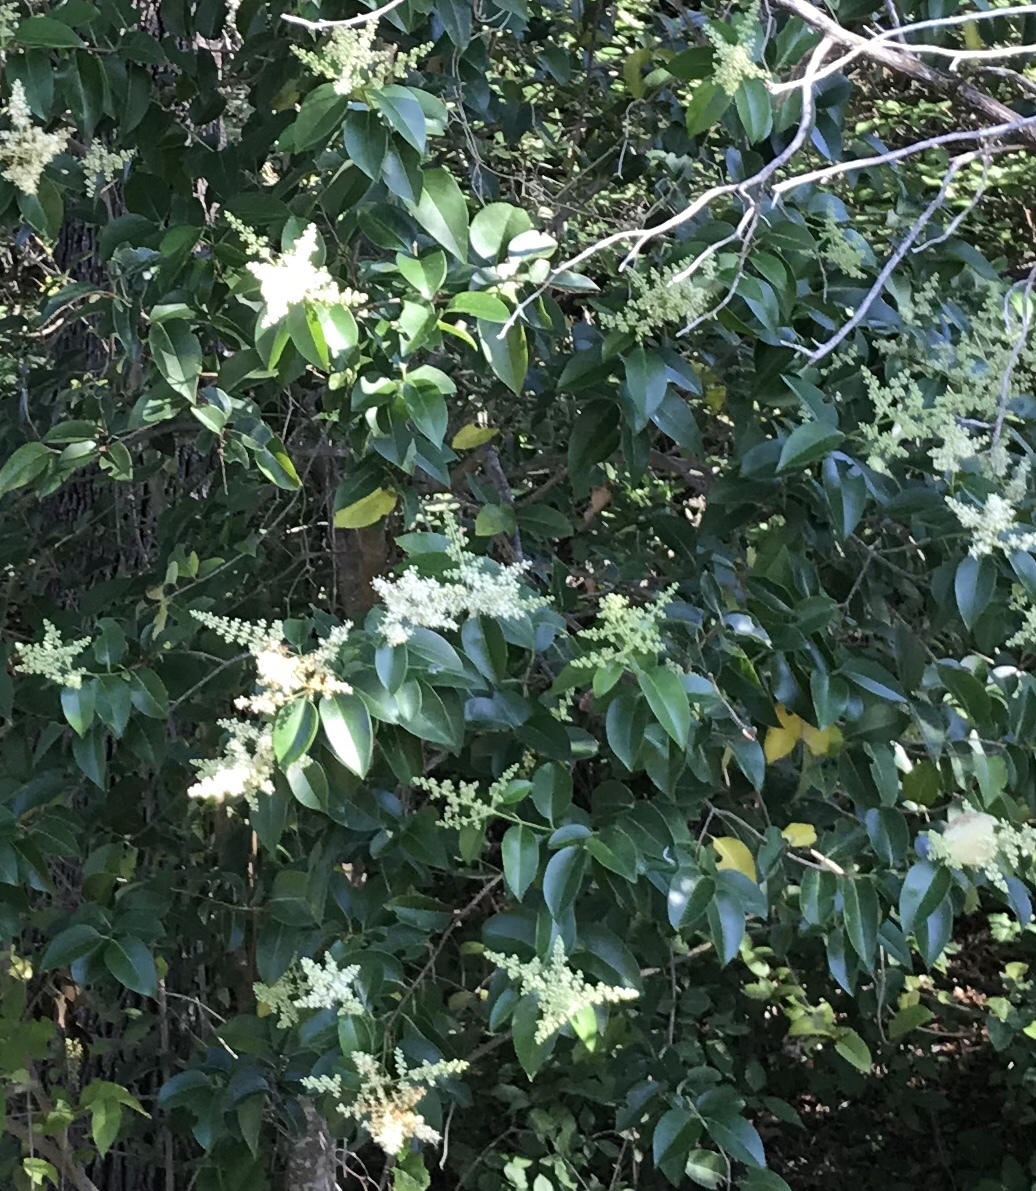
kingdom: Plantae
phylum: Tracheophyta
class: Magnoliopsida
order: Lamiales
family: Oleaceae
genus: Ligustrum
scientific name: Ligustrum lucidum
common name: Glossy privet
